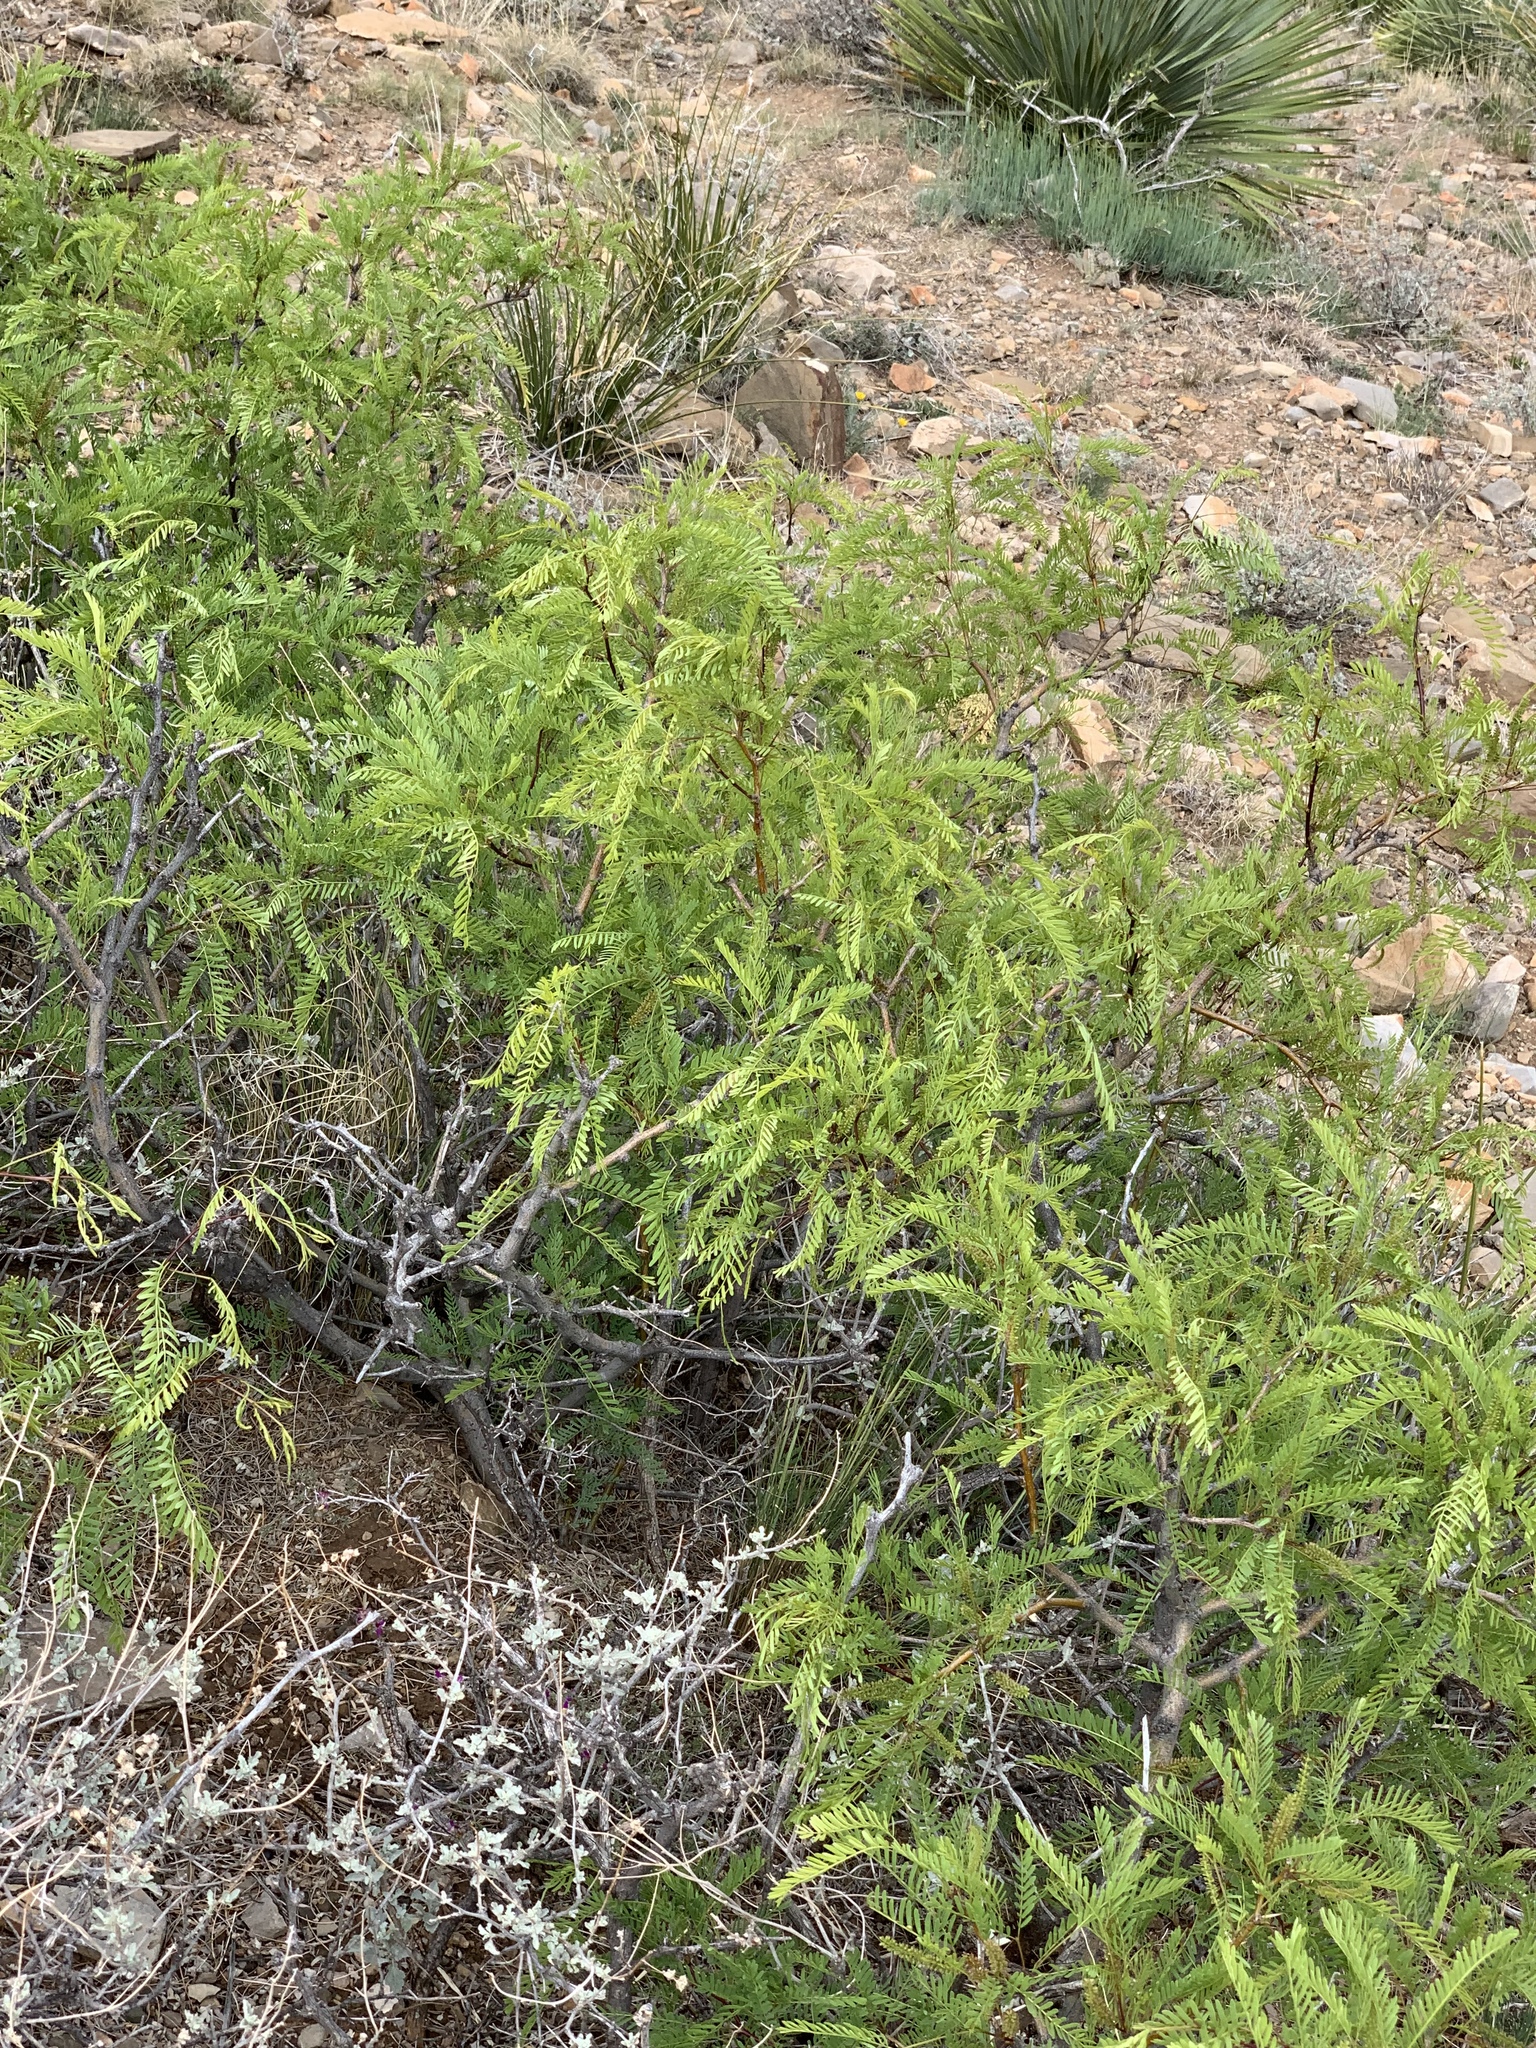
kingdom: Plantae
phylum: Tracheophyta
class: Magnoliopsida
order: Fabales
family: Fabaceae
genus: Prosopis
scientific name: Prosopis glandulosa
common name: Honey mesquite
